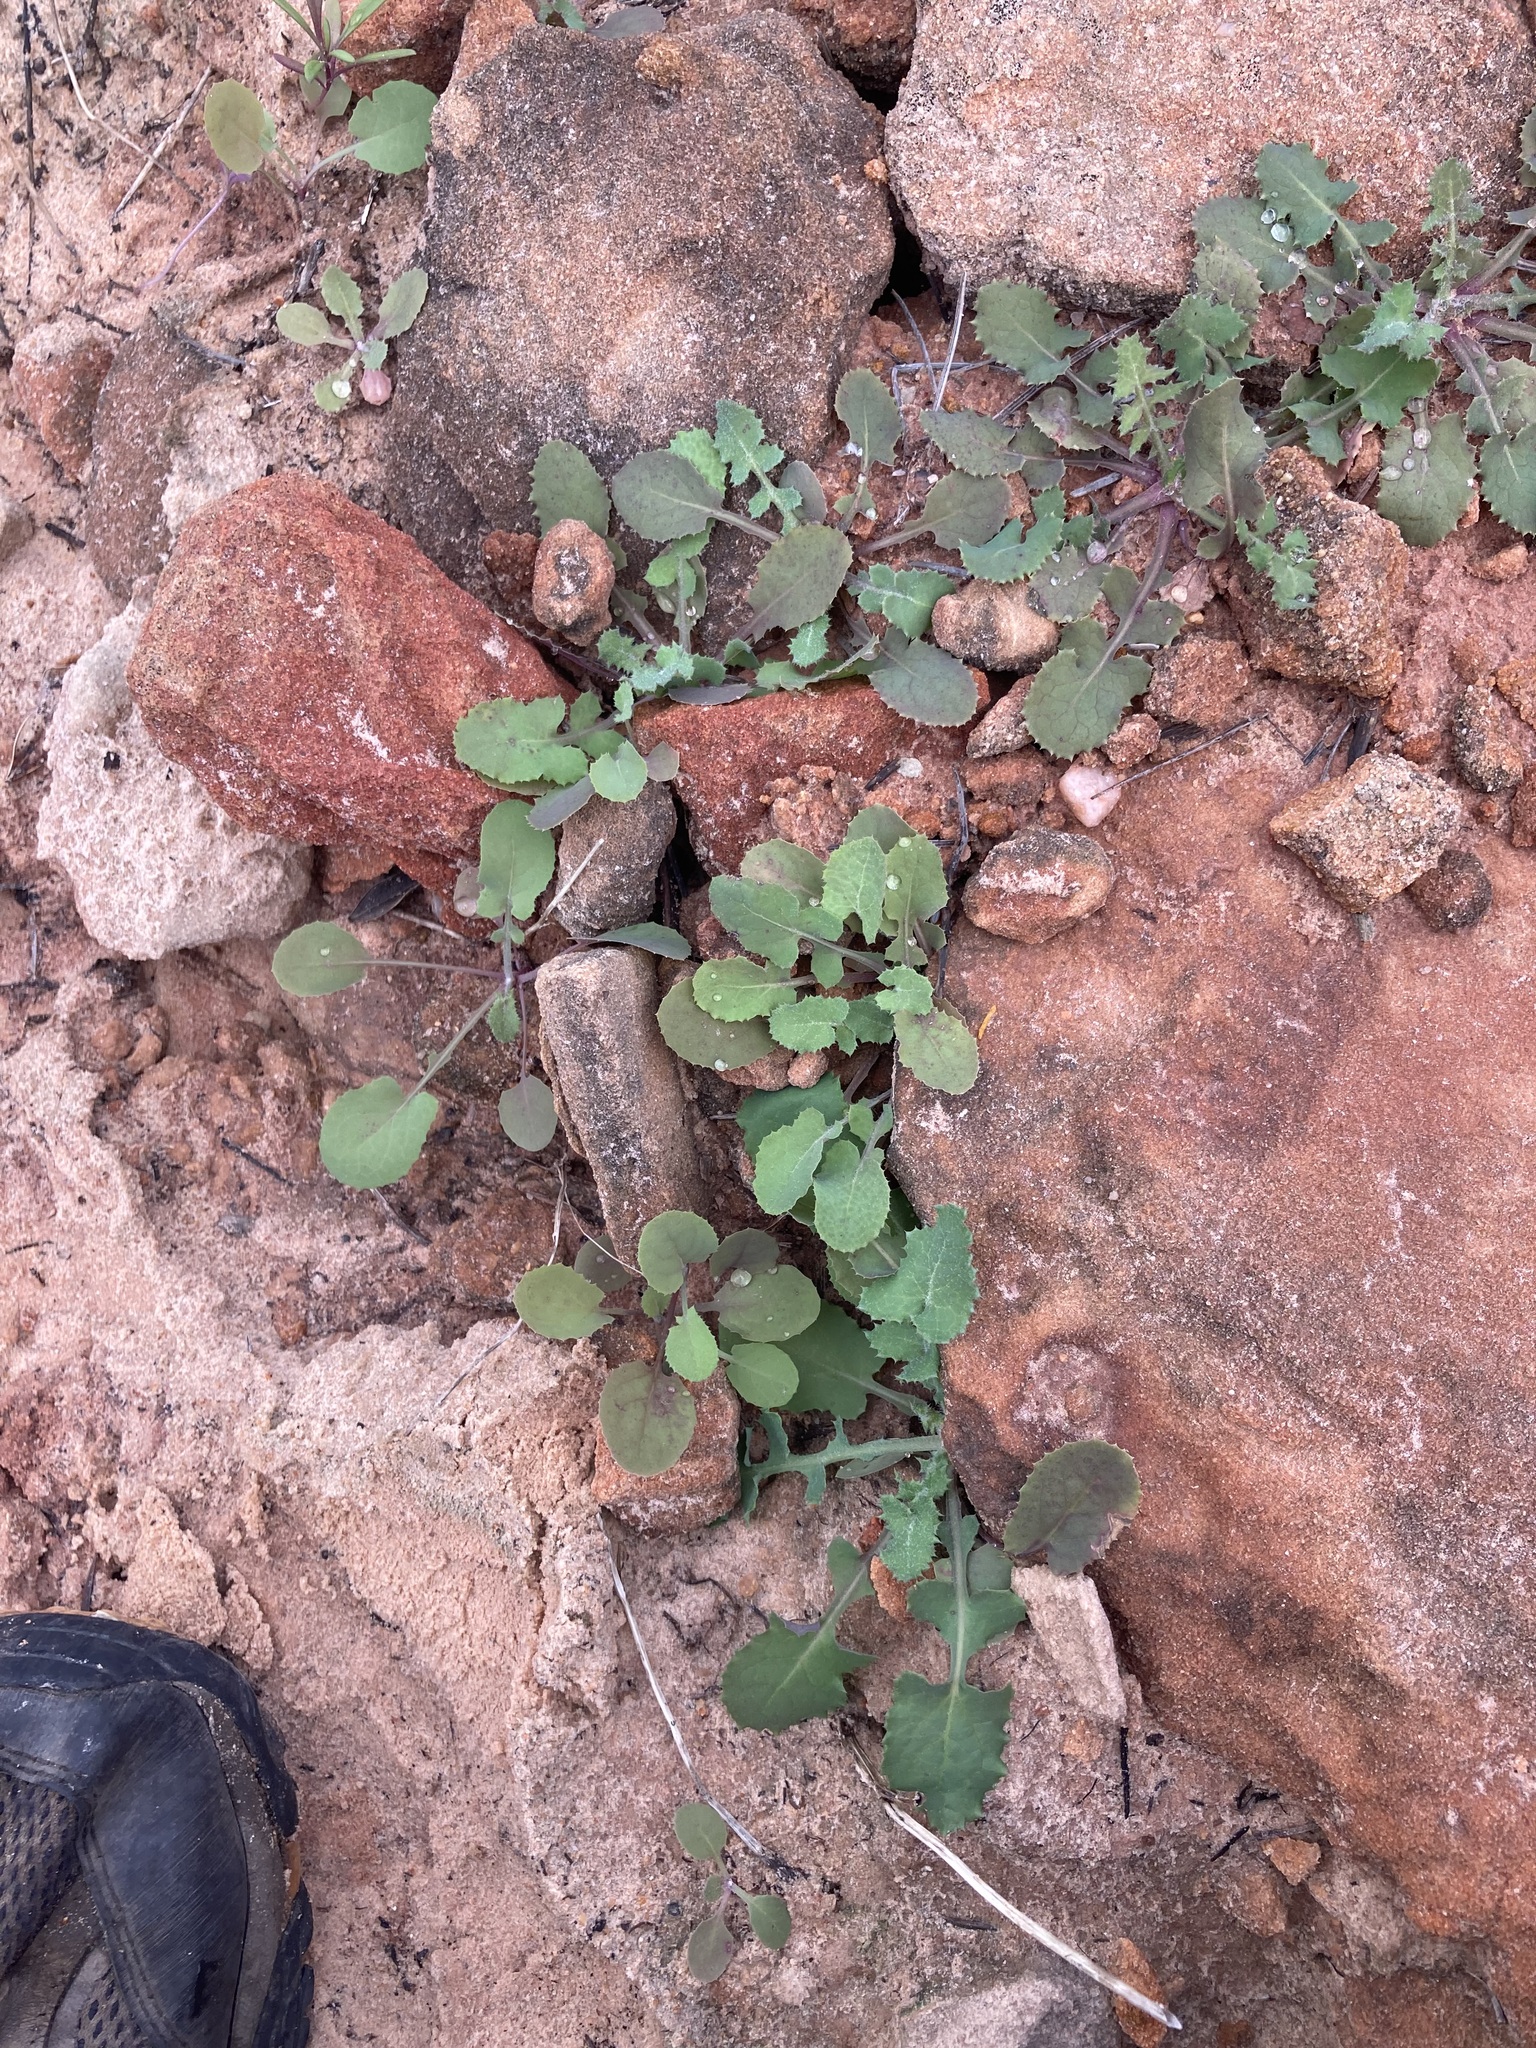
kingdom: Plantae
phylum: Tracheophyta
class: Magnoliopsida
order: Asterales
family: Asteraceae
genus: Sonchus
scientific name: Sonchus oleraceus
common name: Common sowthistle
